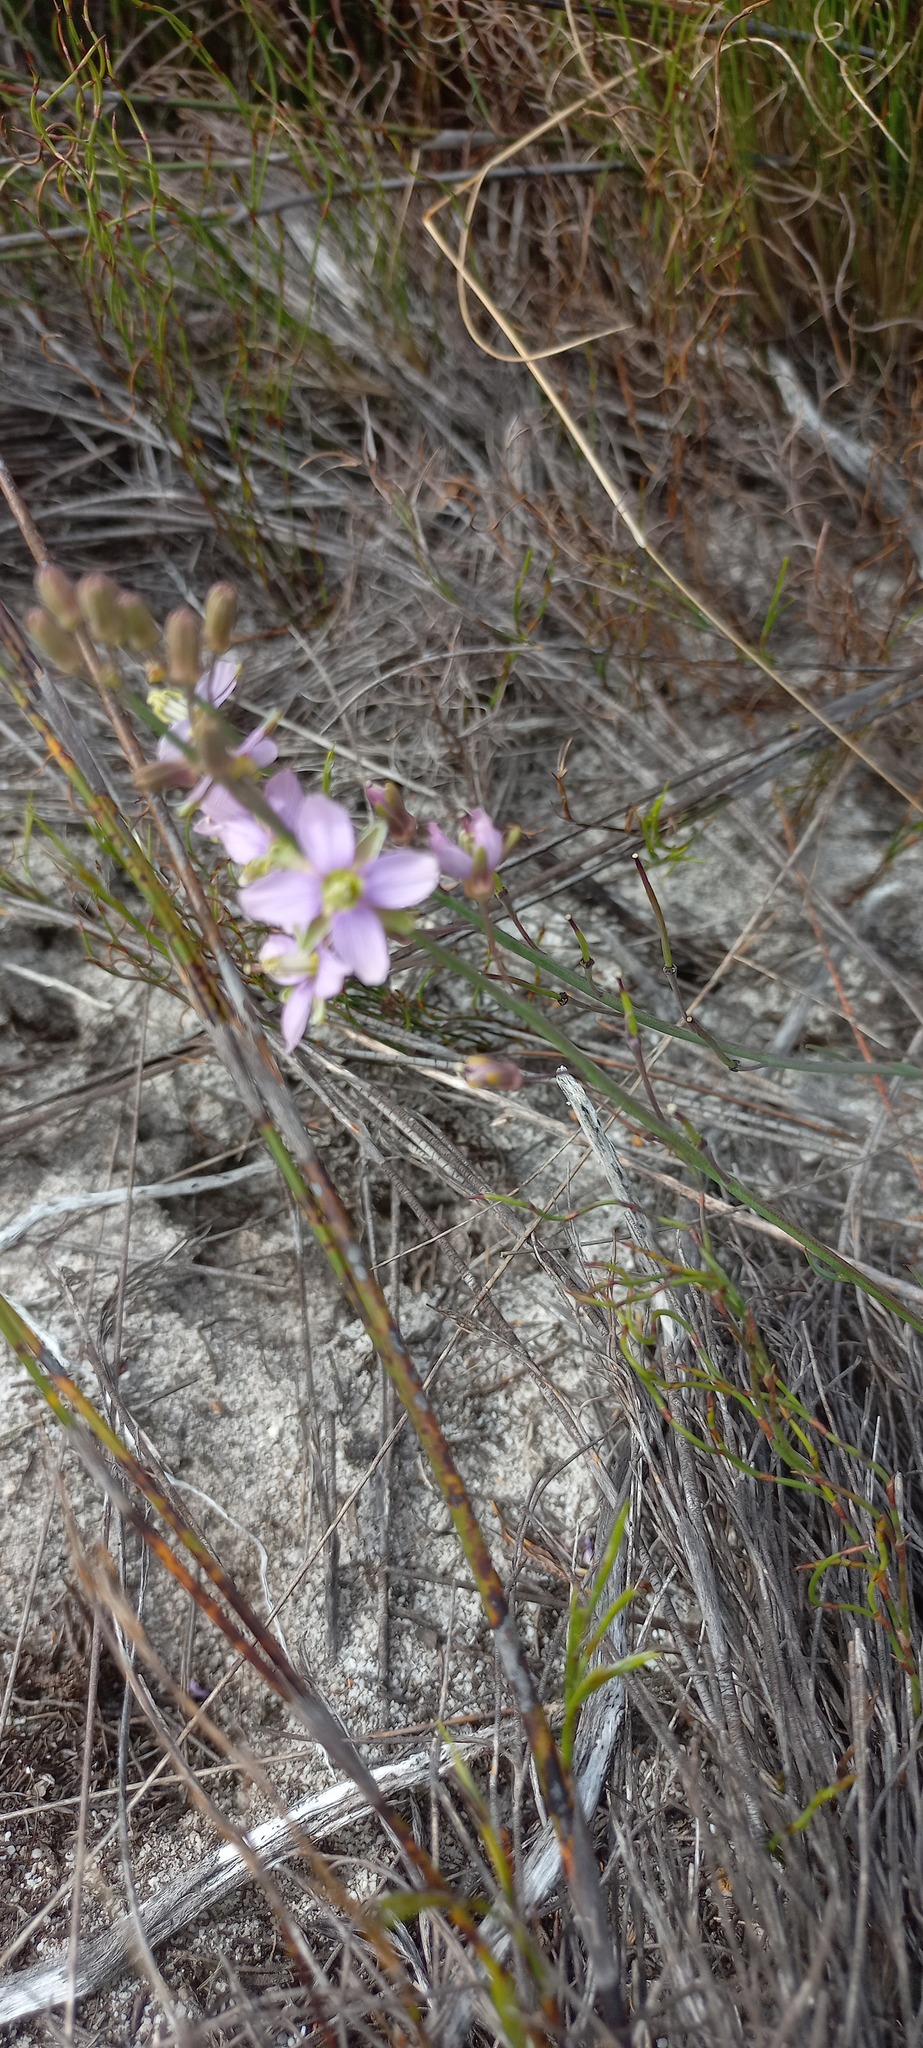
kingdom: Plantae
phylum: Tracheophyta
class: Magnoliopsida
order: Brassicales
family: Brassicaceae
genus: Heliophila
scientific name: Heliophila linearis
